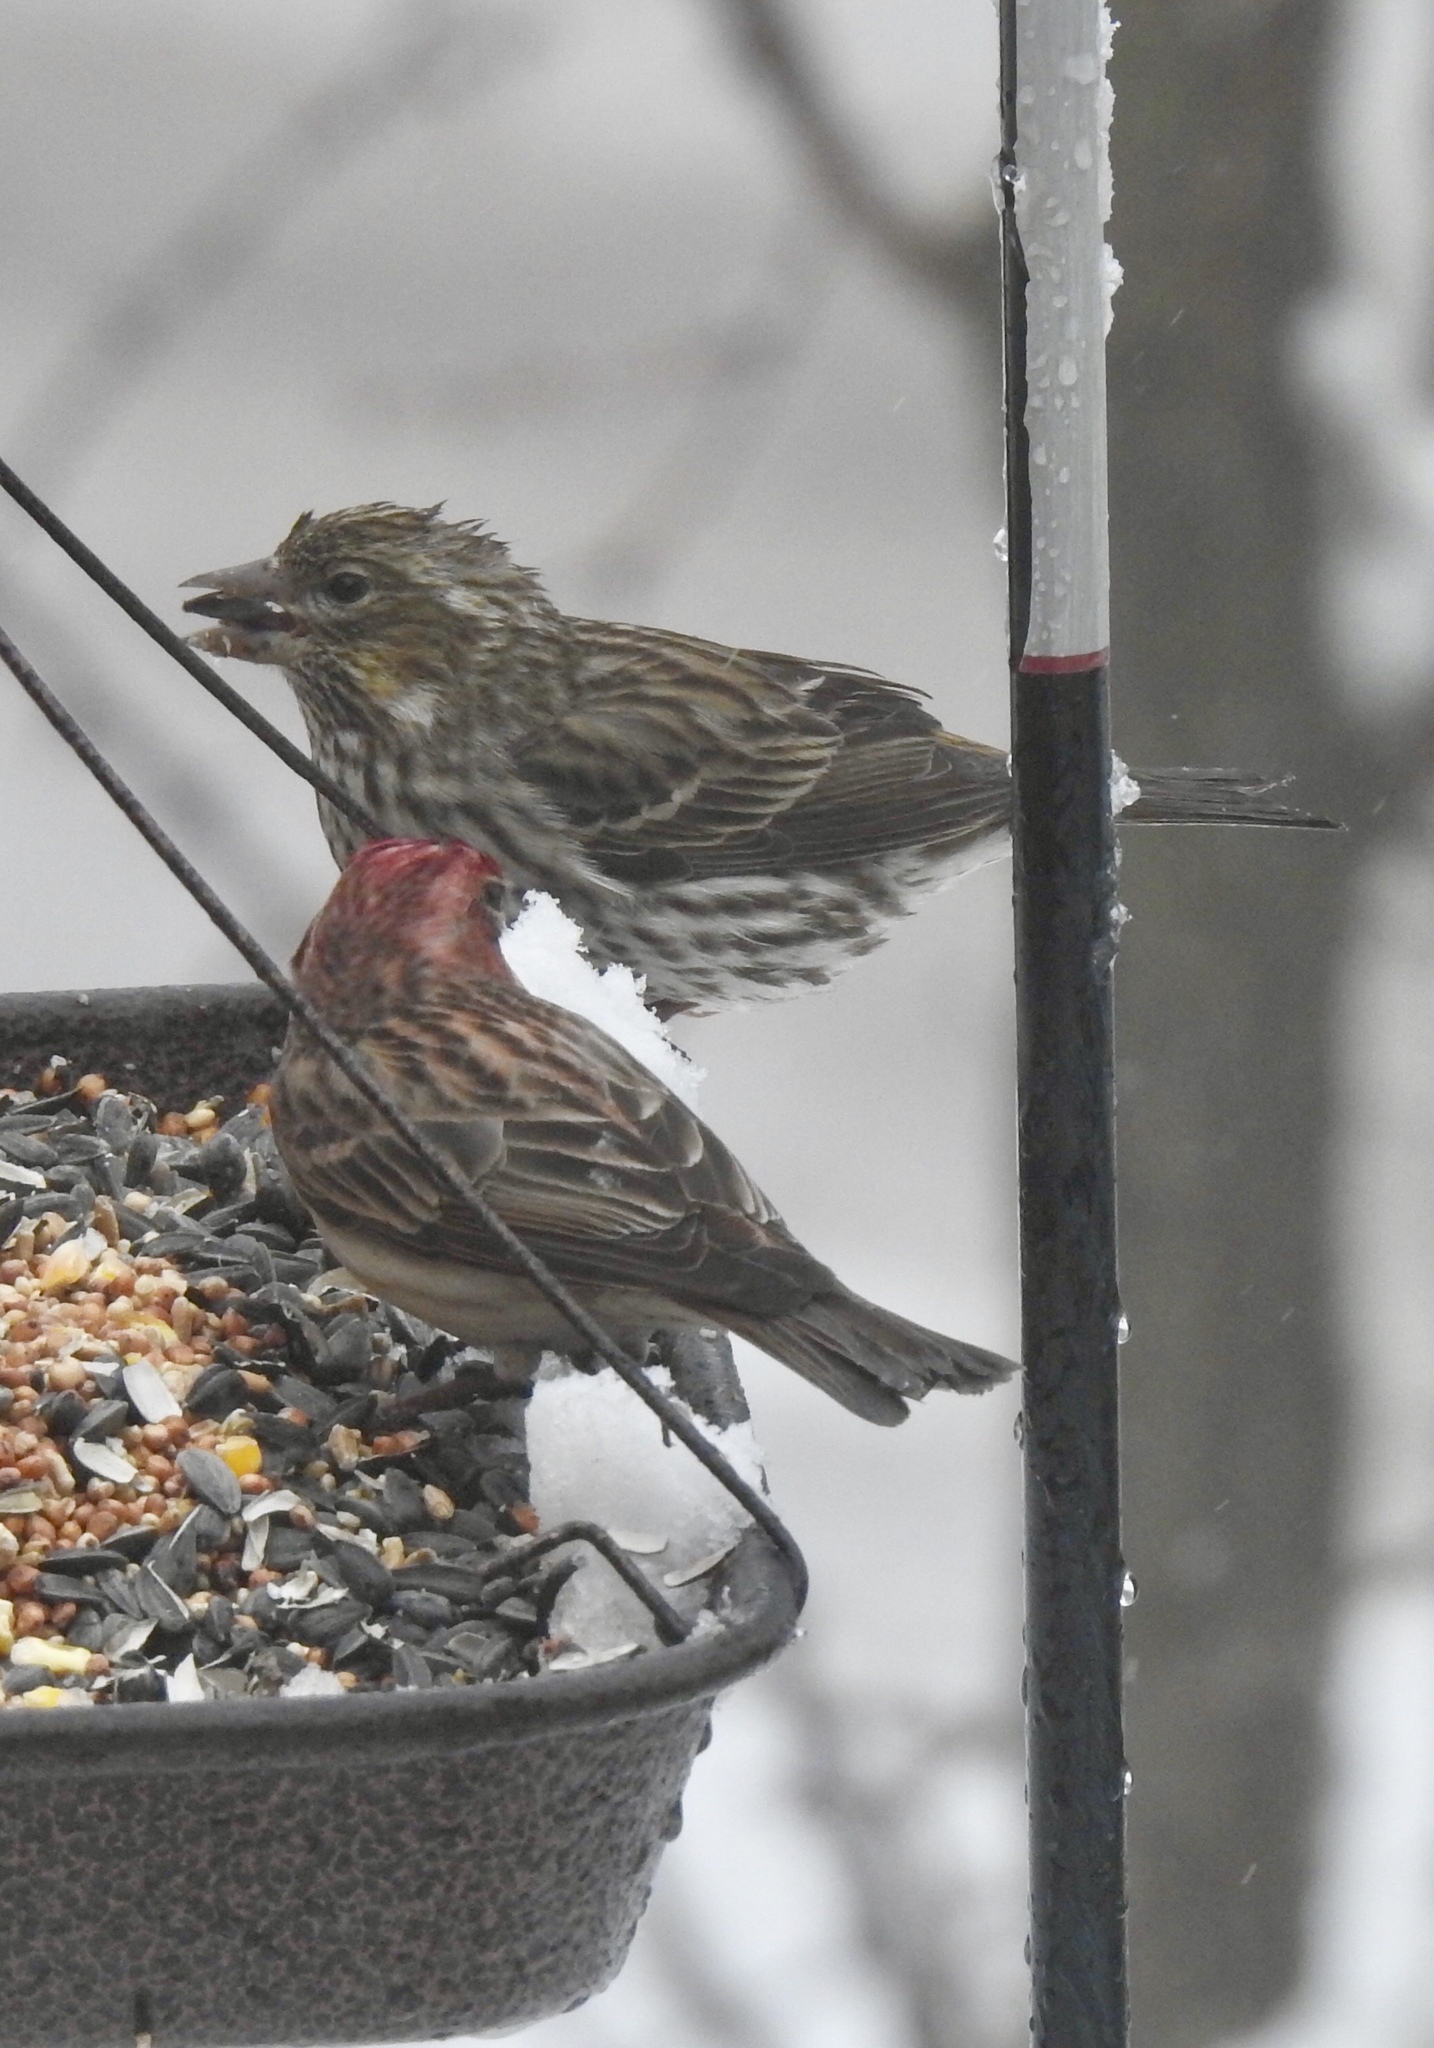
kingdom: Animalia
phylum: Chordata
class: Aves
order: Passeriformes
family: Fringillidae
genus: Haemorhous
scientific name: Haemorhous cassinii
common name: Cassin's finch
